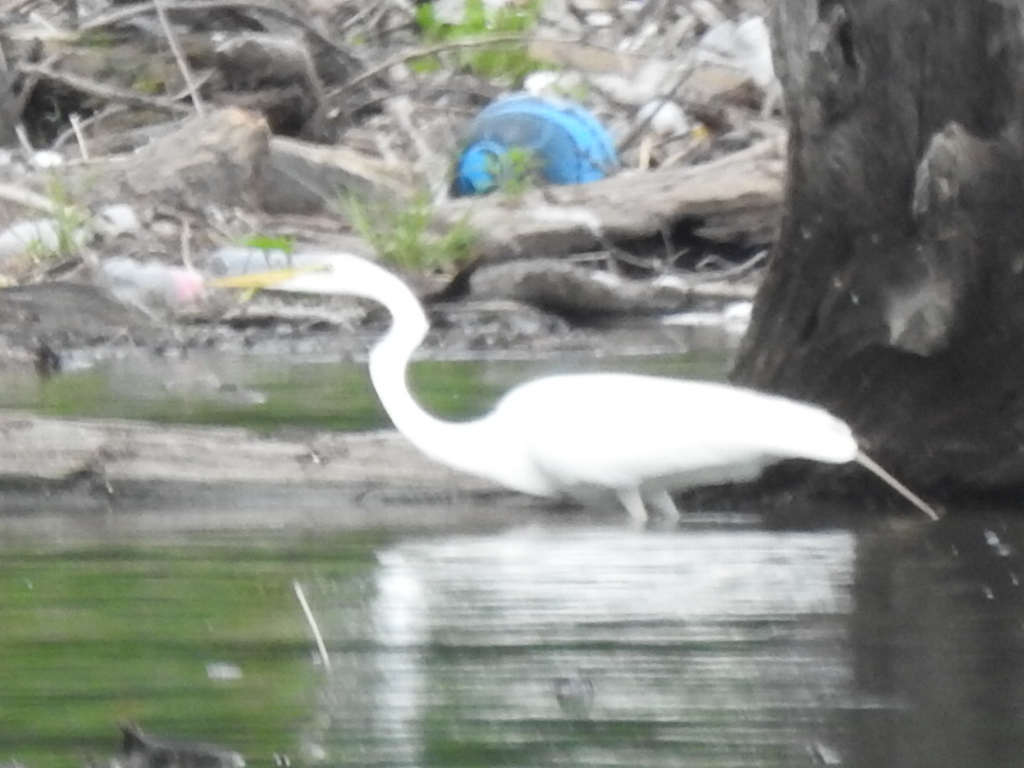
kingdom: Animalia
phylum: Chordata
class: Aves
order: Pelecaniformes
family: Ardeidae
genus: Ardea
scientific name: Ardea alba
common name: Great egret
